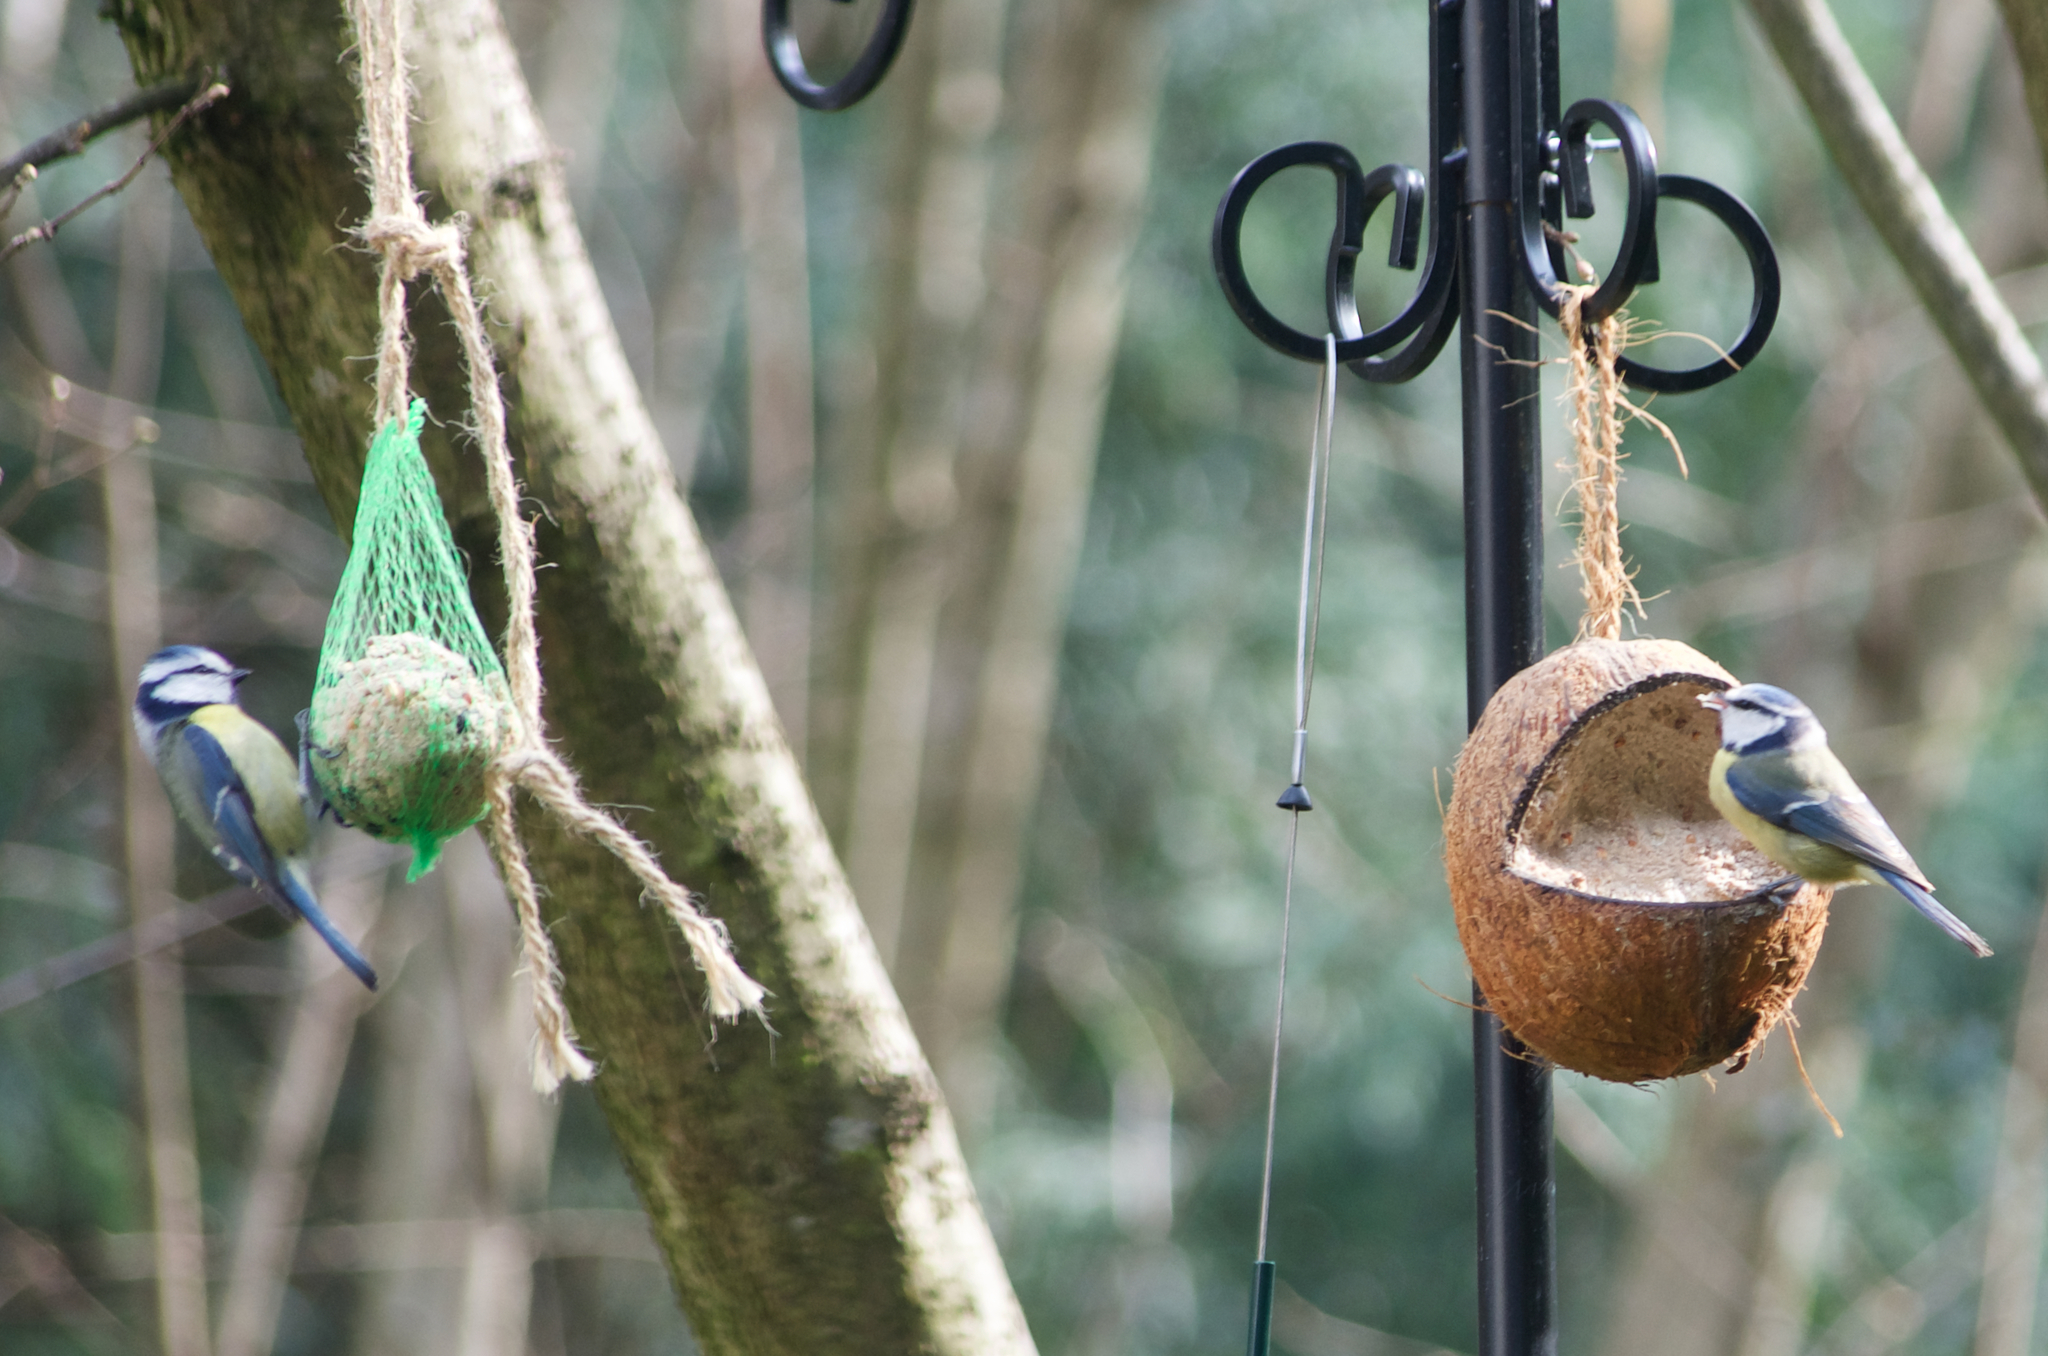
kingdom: Animalia
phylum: Chordata
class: Aves
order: Passeriformes
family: Paridae
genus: Cyanistes
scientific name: Cyanistes caeruleus
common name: Eurasian blue tit
